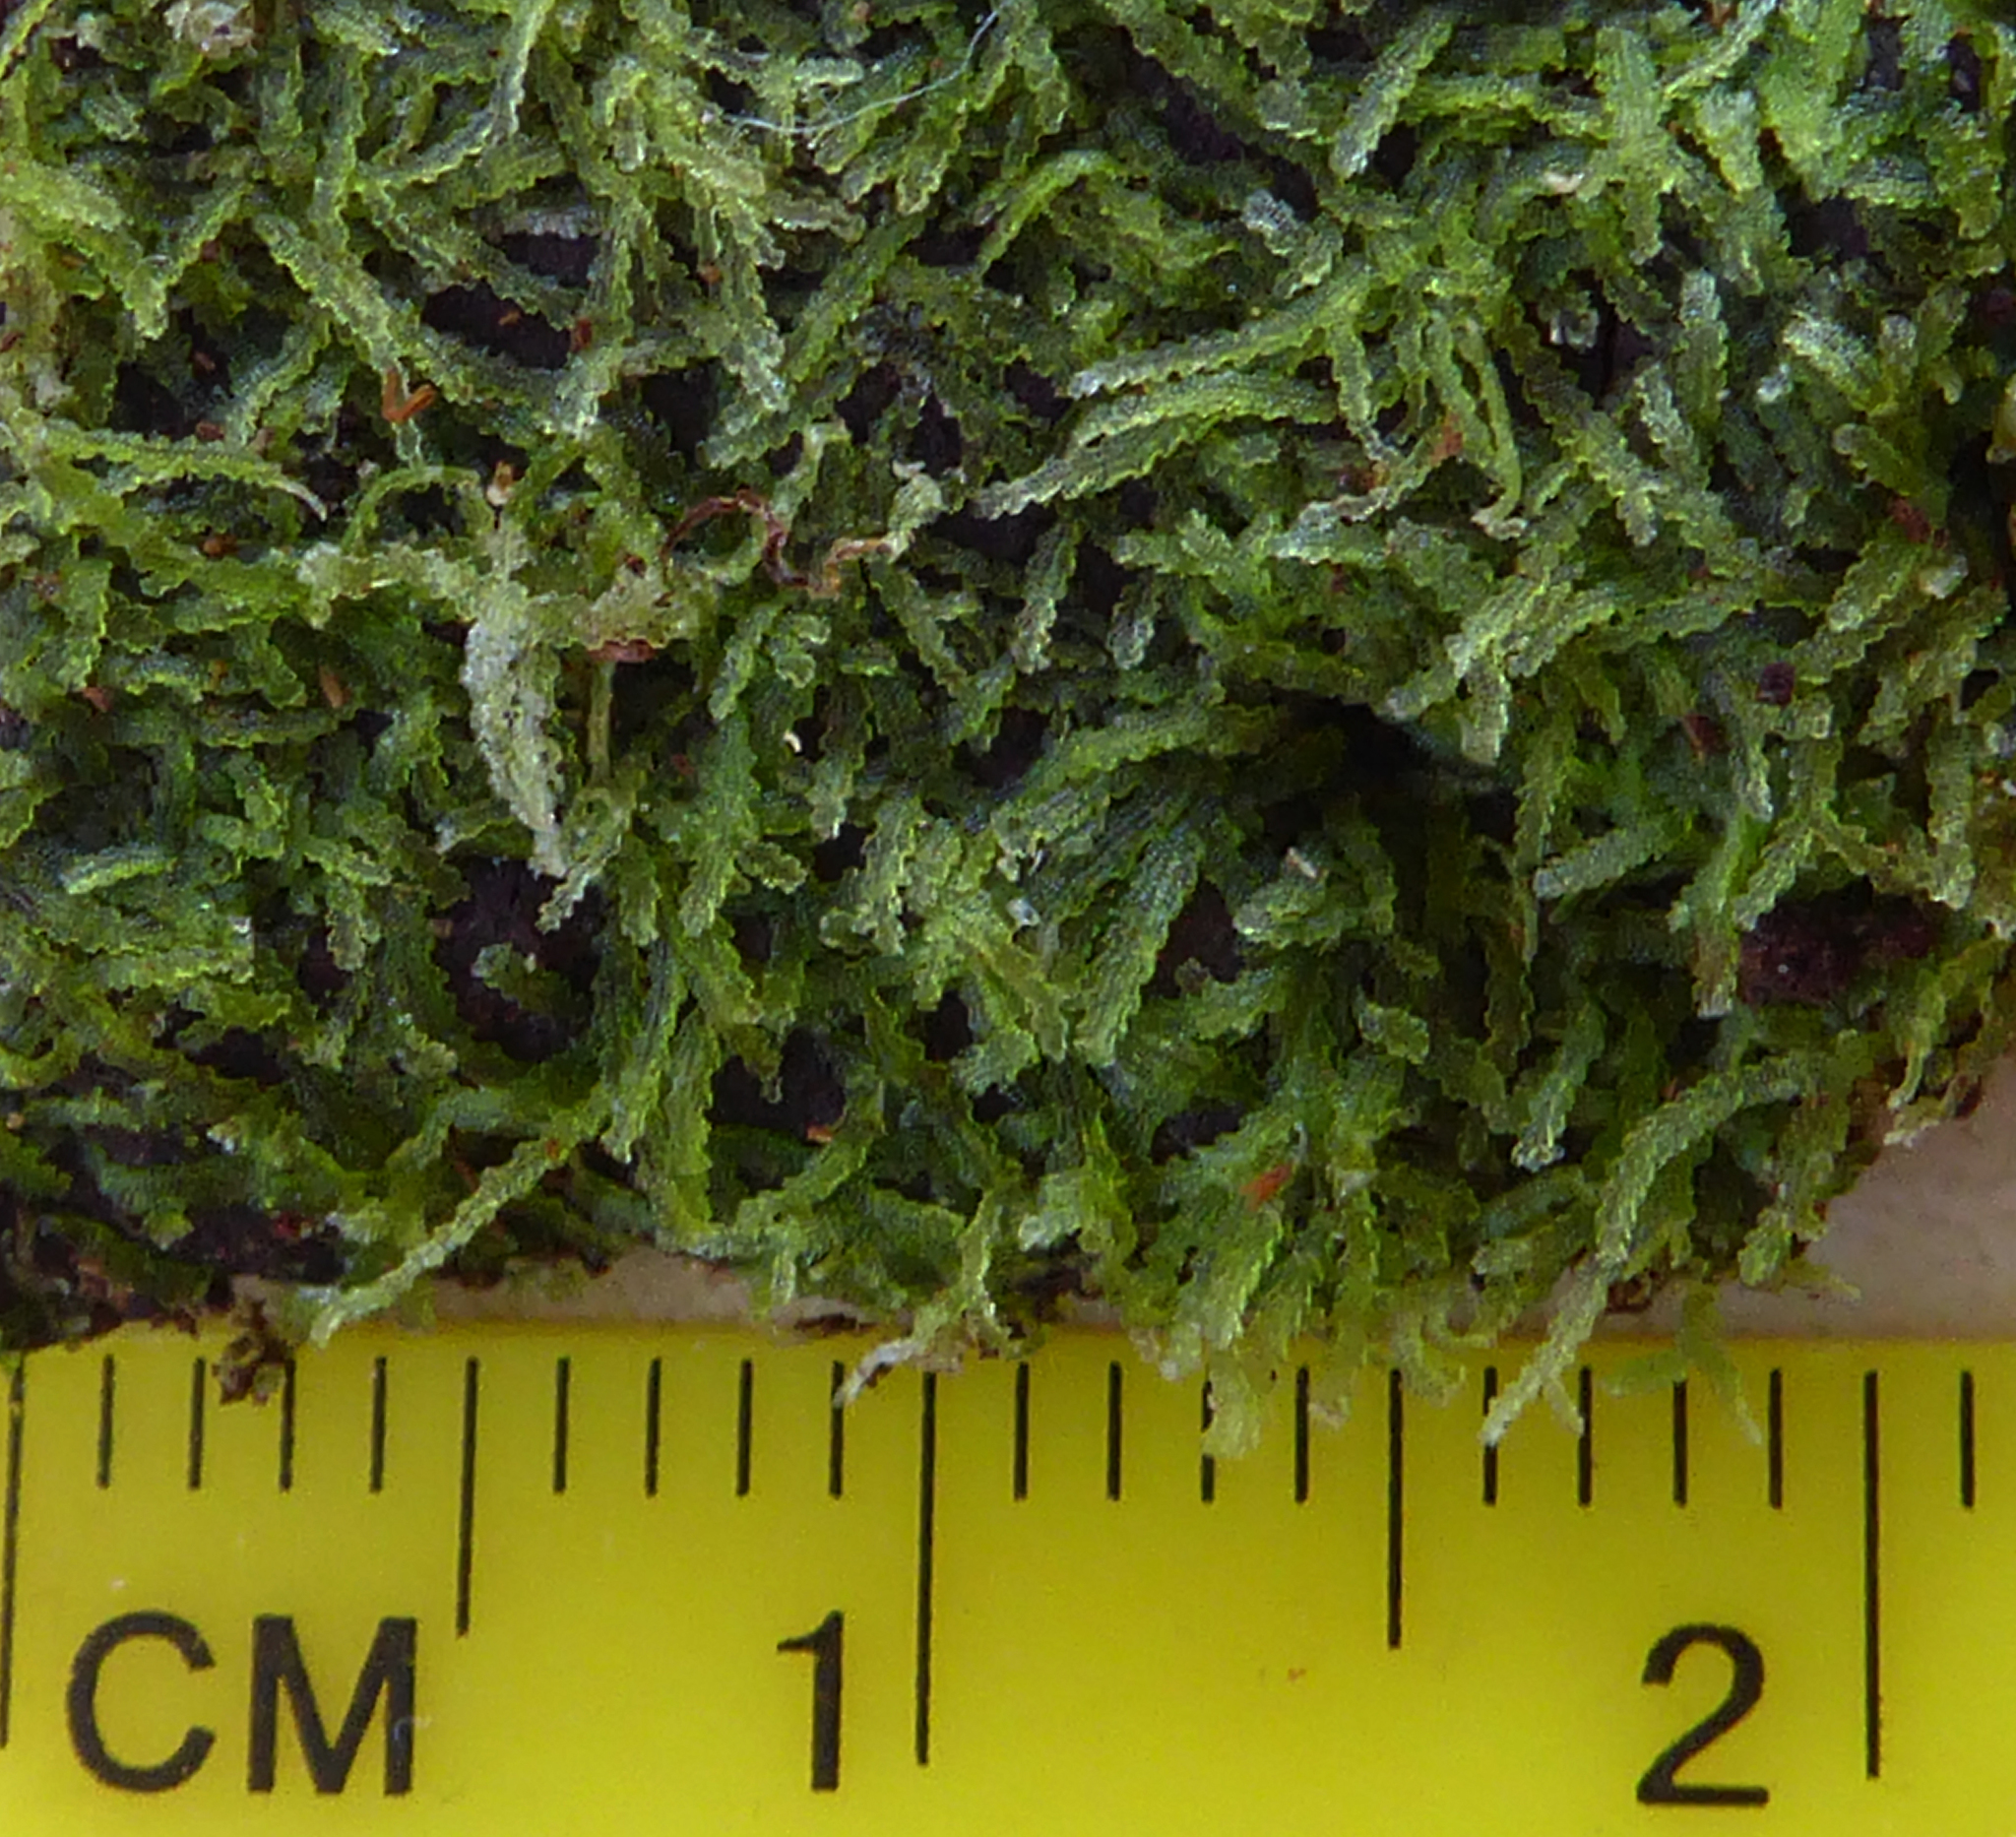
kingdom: Plantae
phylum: Marchantiophyta
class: Jungermanniopsida
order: Jungermanniales
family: Lepidoziaceae
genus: Zoopsis
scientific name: Zoopsis argentea
